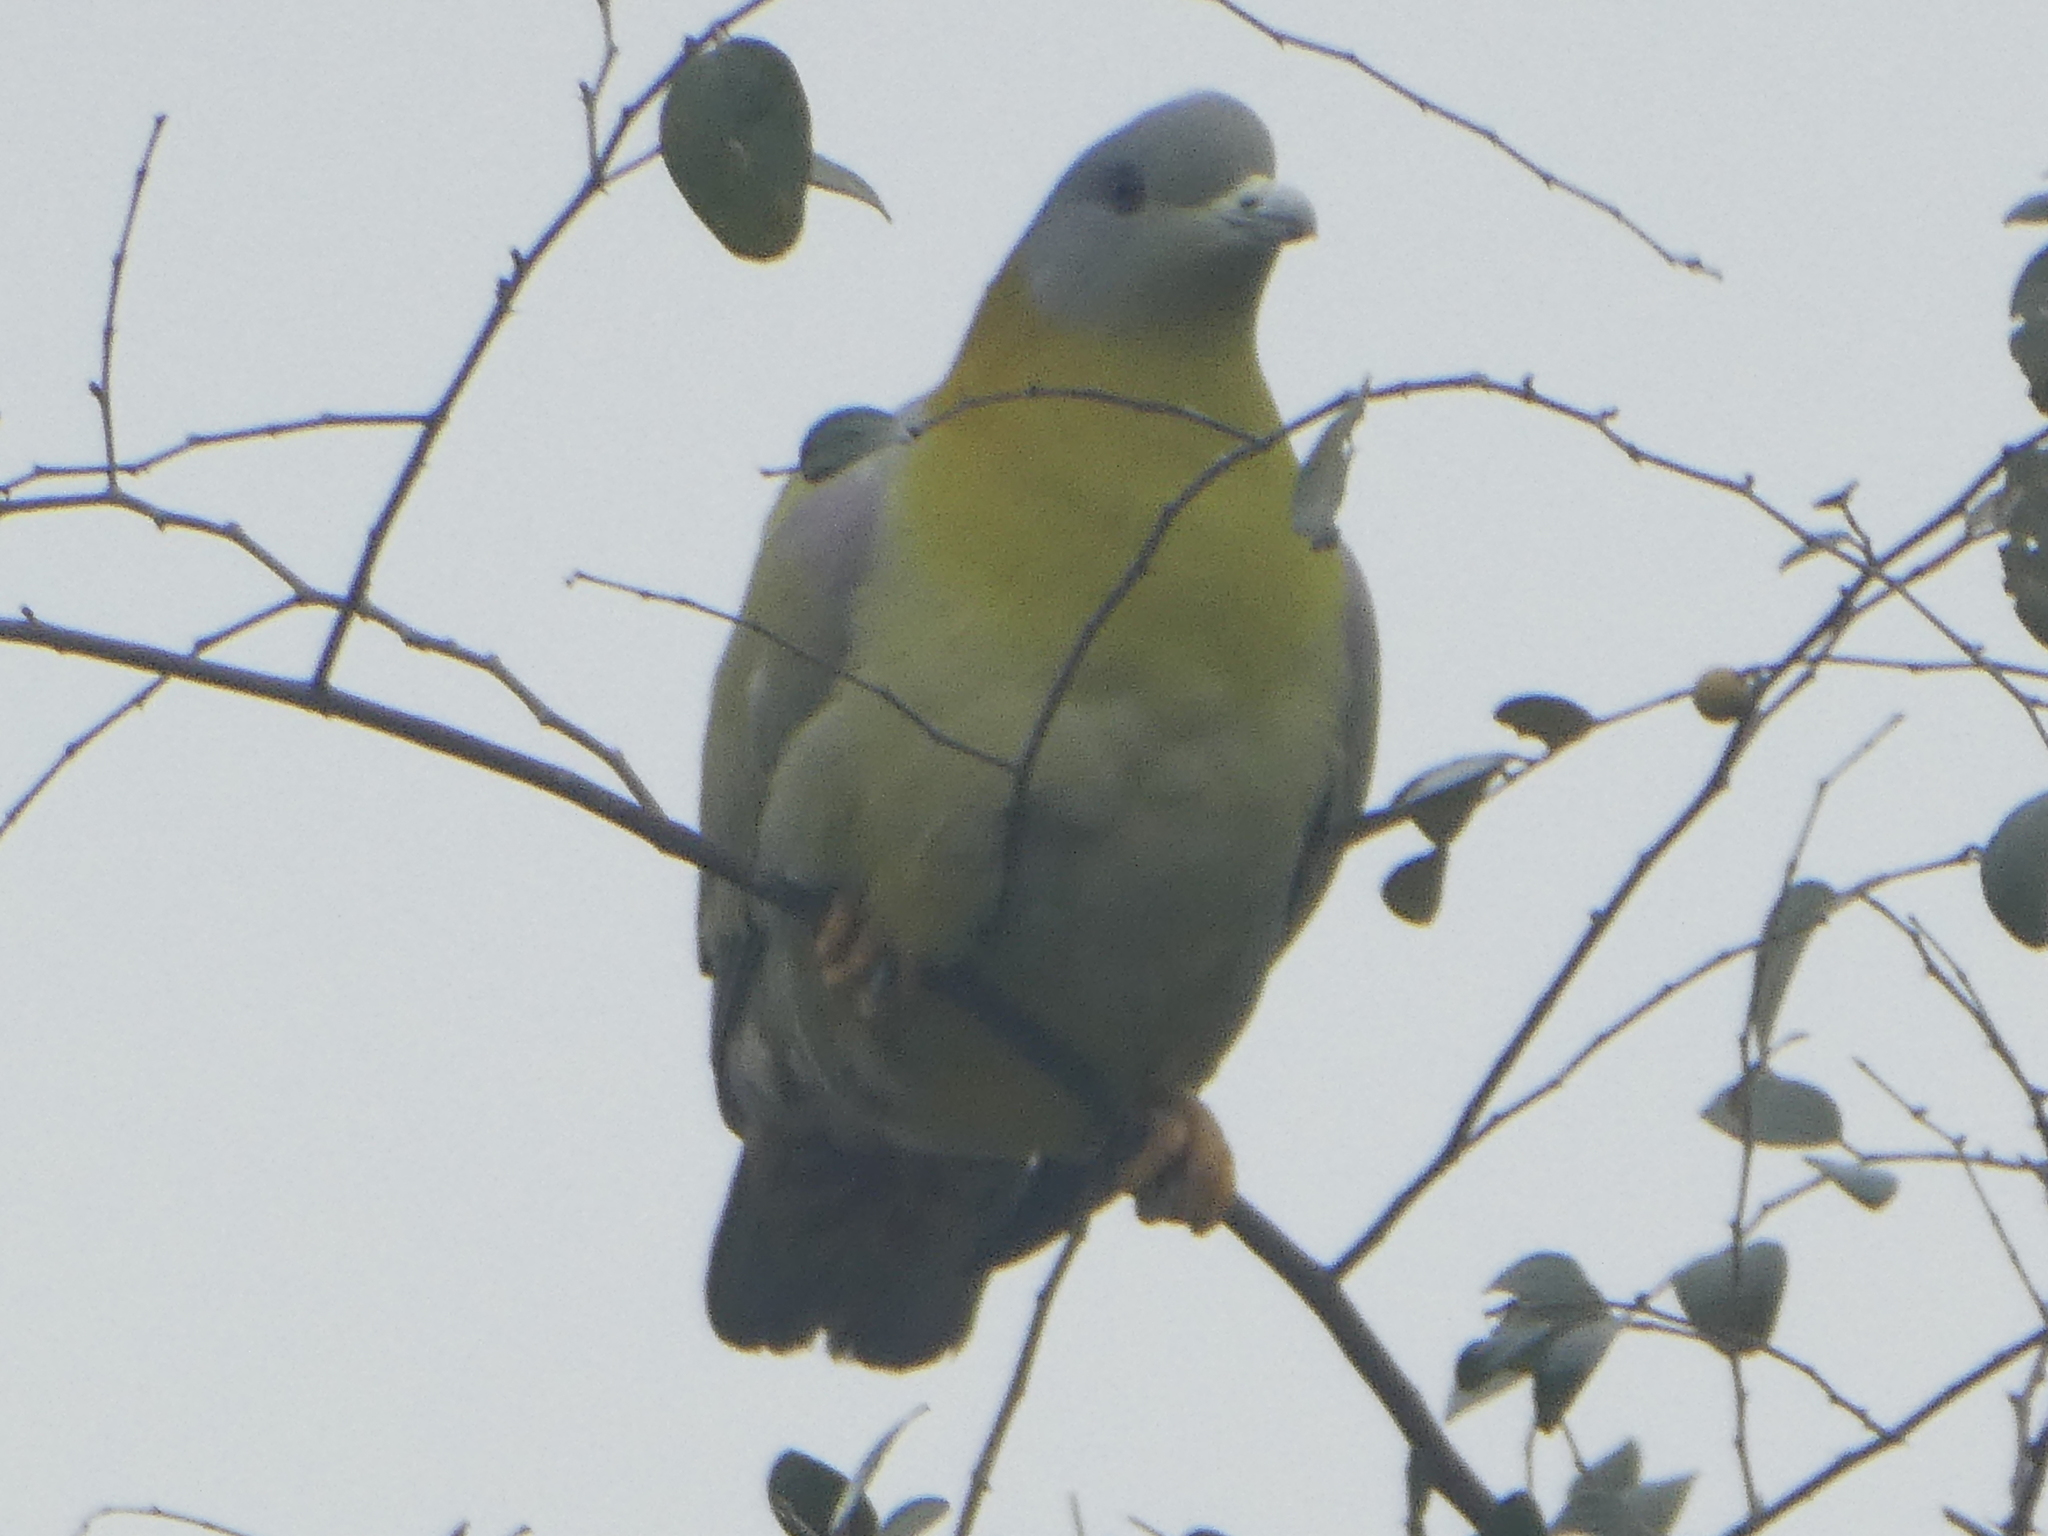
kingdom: Animalia
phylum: Chordata
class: Aves
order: Columbiformes
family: Columbidae
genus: Treron
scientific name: Treron phoenicopterus
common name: Yellow-footed green pigeon
